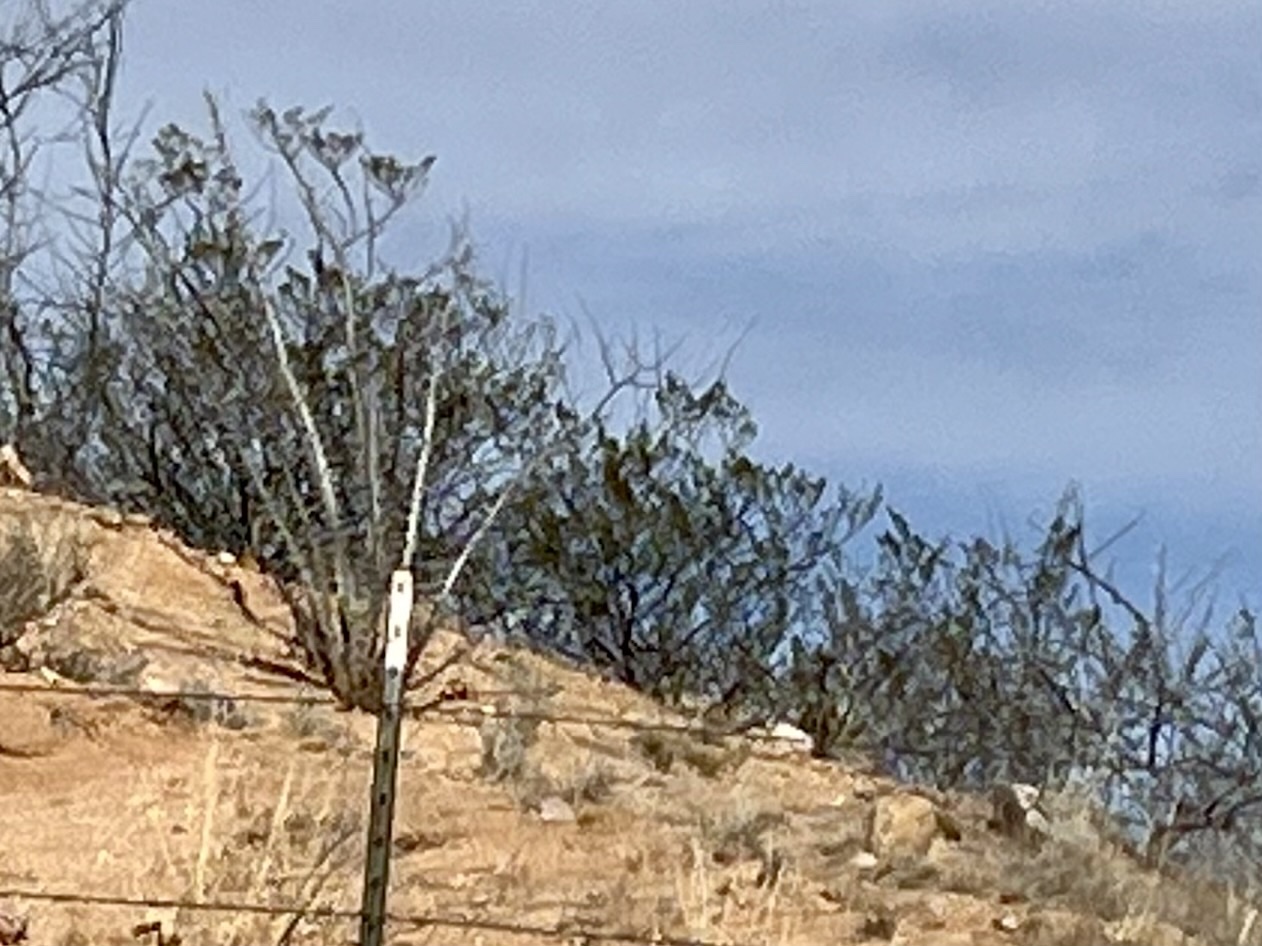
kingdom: Plantae
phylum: Tracheophyta
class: Magnoliopsida
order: Zygophyllales
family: Zygophyllaceae
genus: Larrea
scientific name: Larrea tridentata
